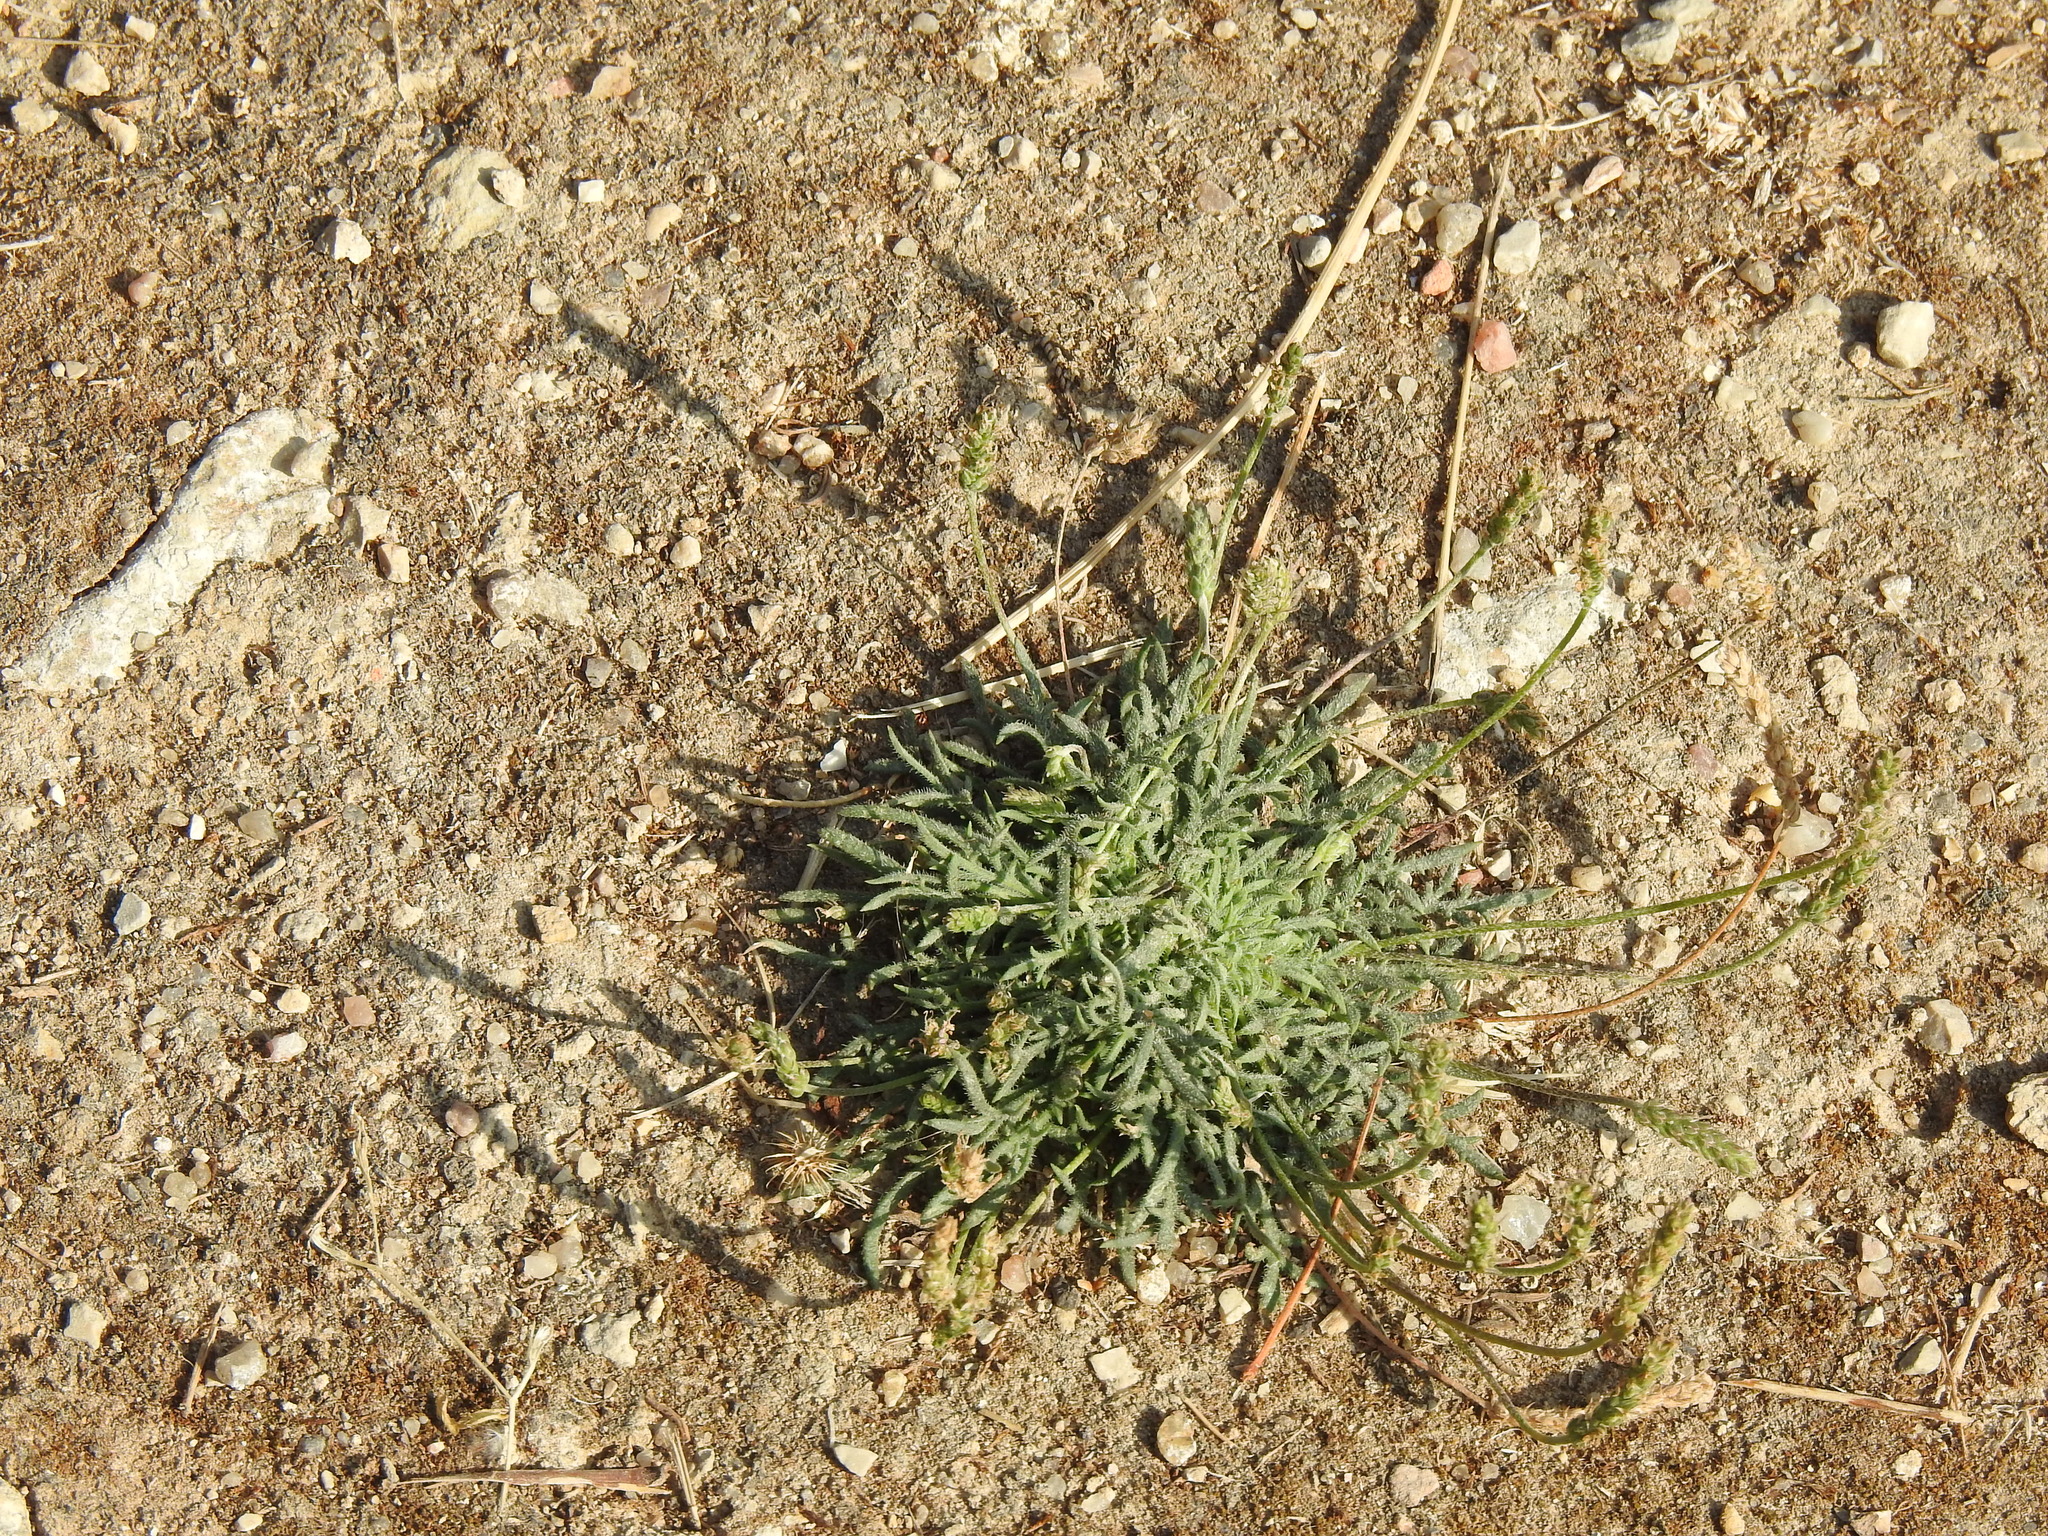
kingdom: Plantae
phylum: Tracheophyta
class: Magnoliopsida
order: Lamiales
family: Plantaginaceae
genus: Plantago
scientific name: Plantago coronopus
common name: Buck's-horn plantain
